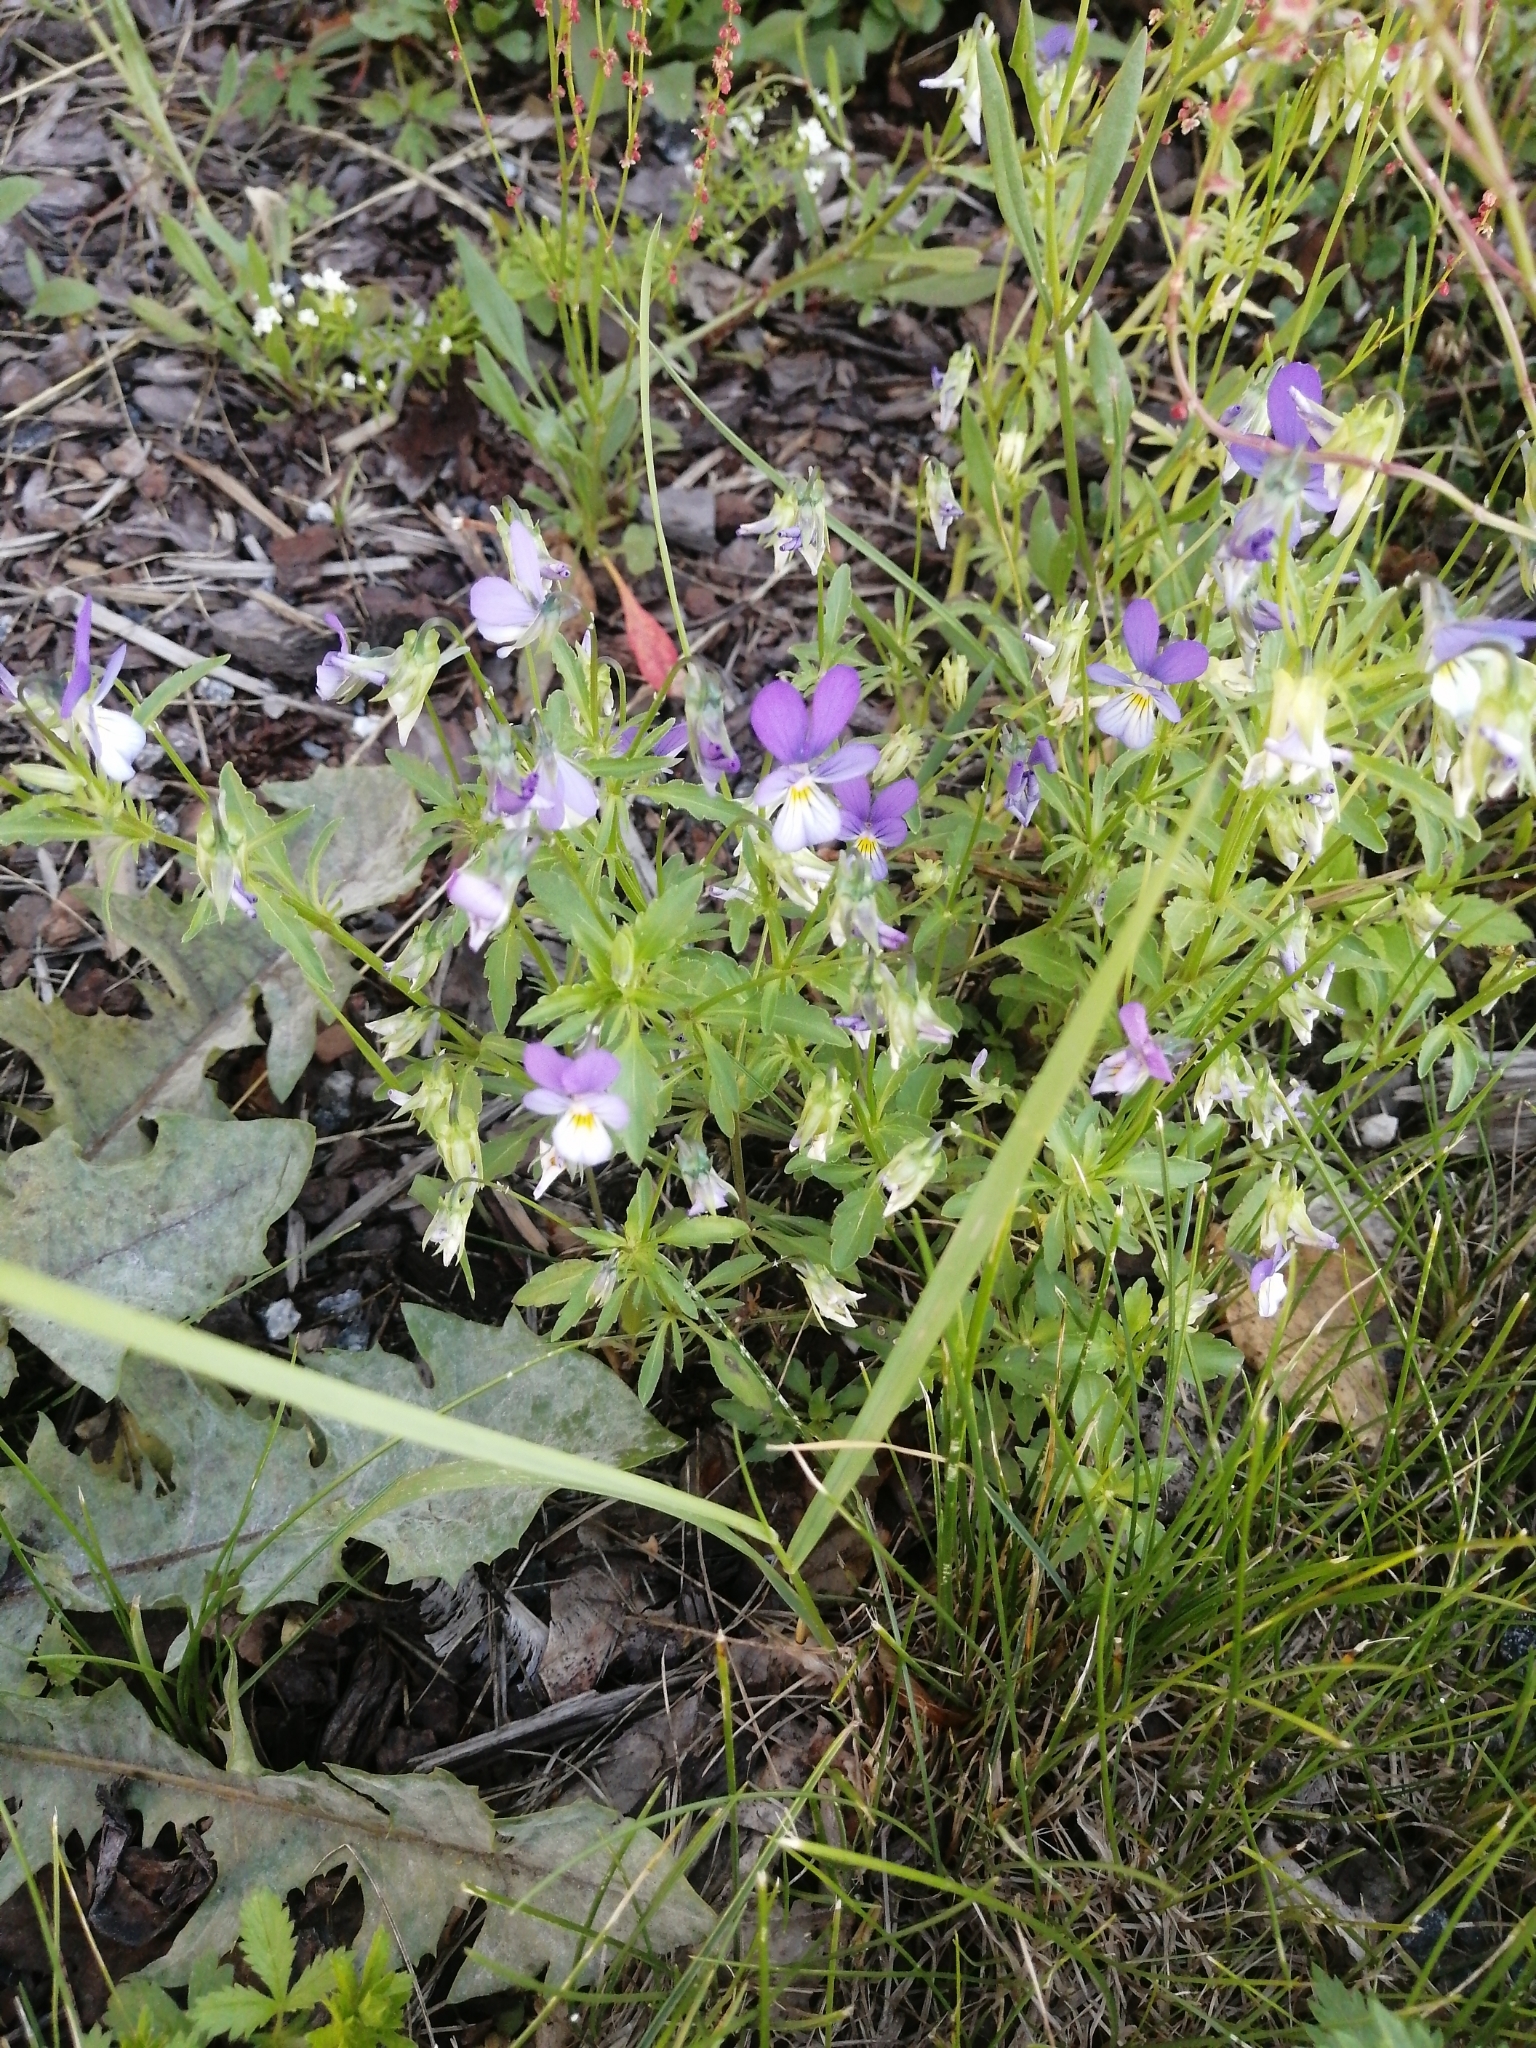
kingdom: Plantae
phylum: Tracheophyta
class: Magnoliopsida
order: Malpighiales
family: Violaceae
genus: Viola
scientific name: Viola tricolor
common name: Pansy
